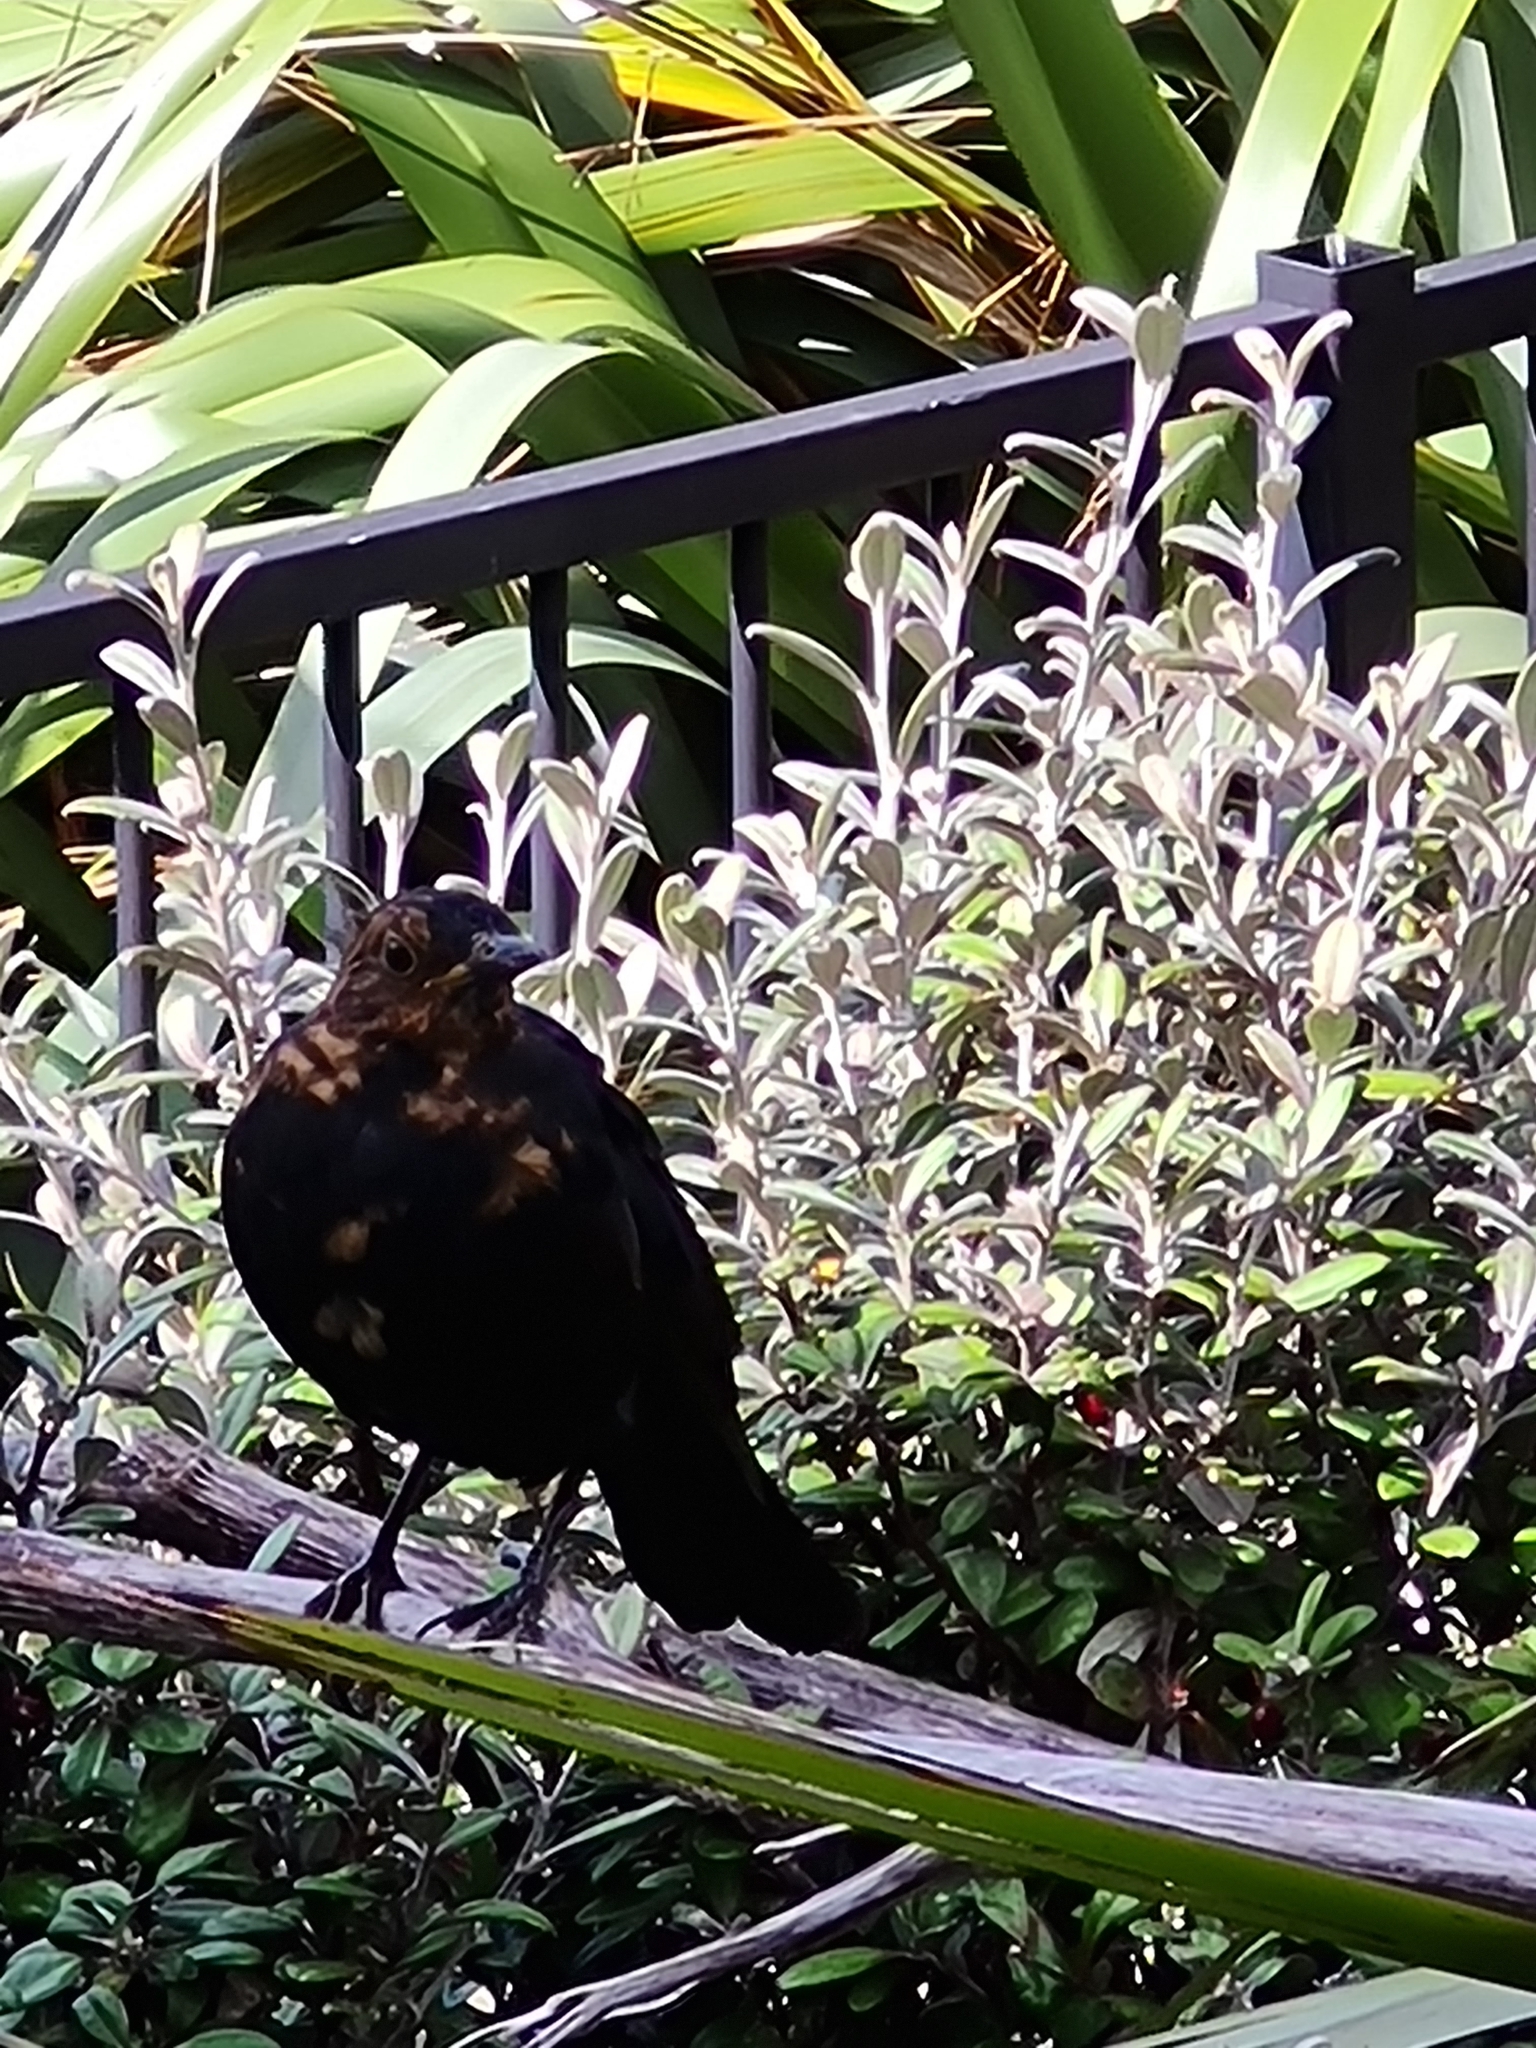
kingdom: Animalia
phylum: Chordata
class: Aves
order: Passeriformes
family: Turdidae
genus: Turdus
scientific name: Turdus merula
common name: Common blackbird
